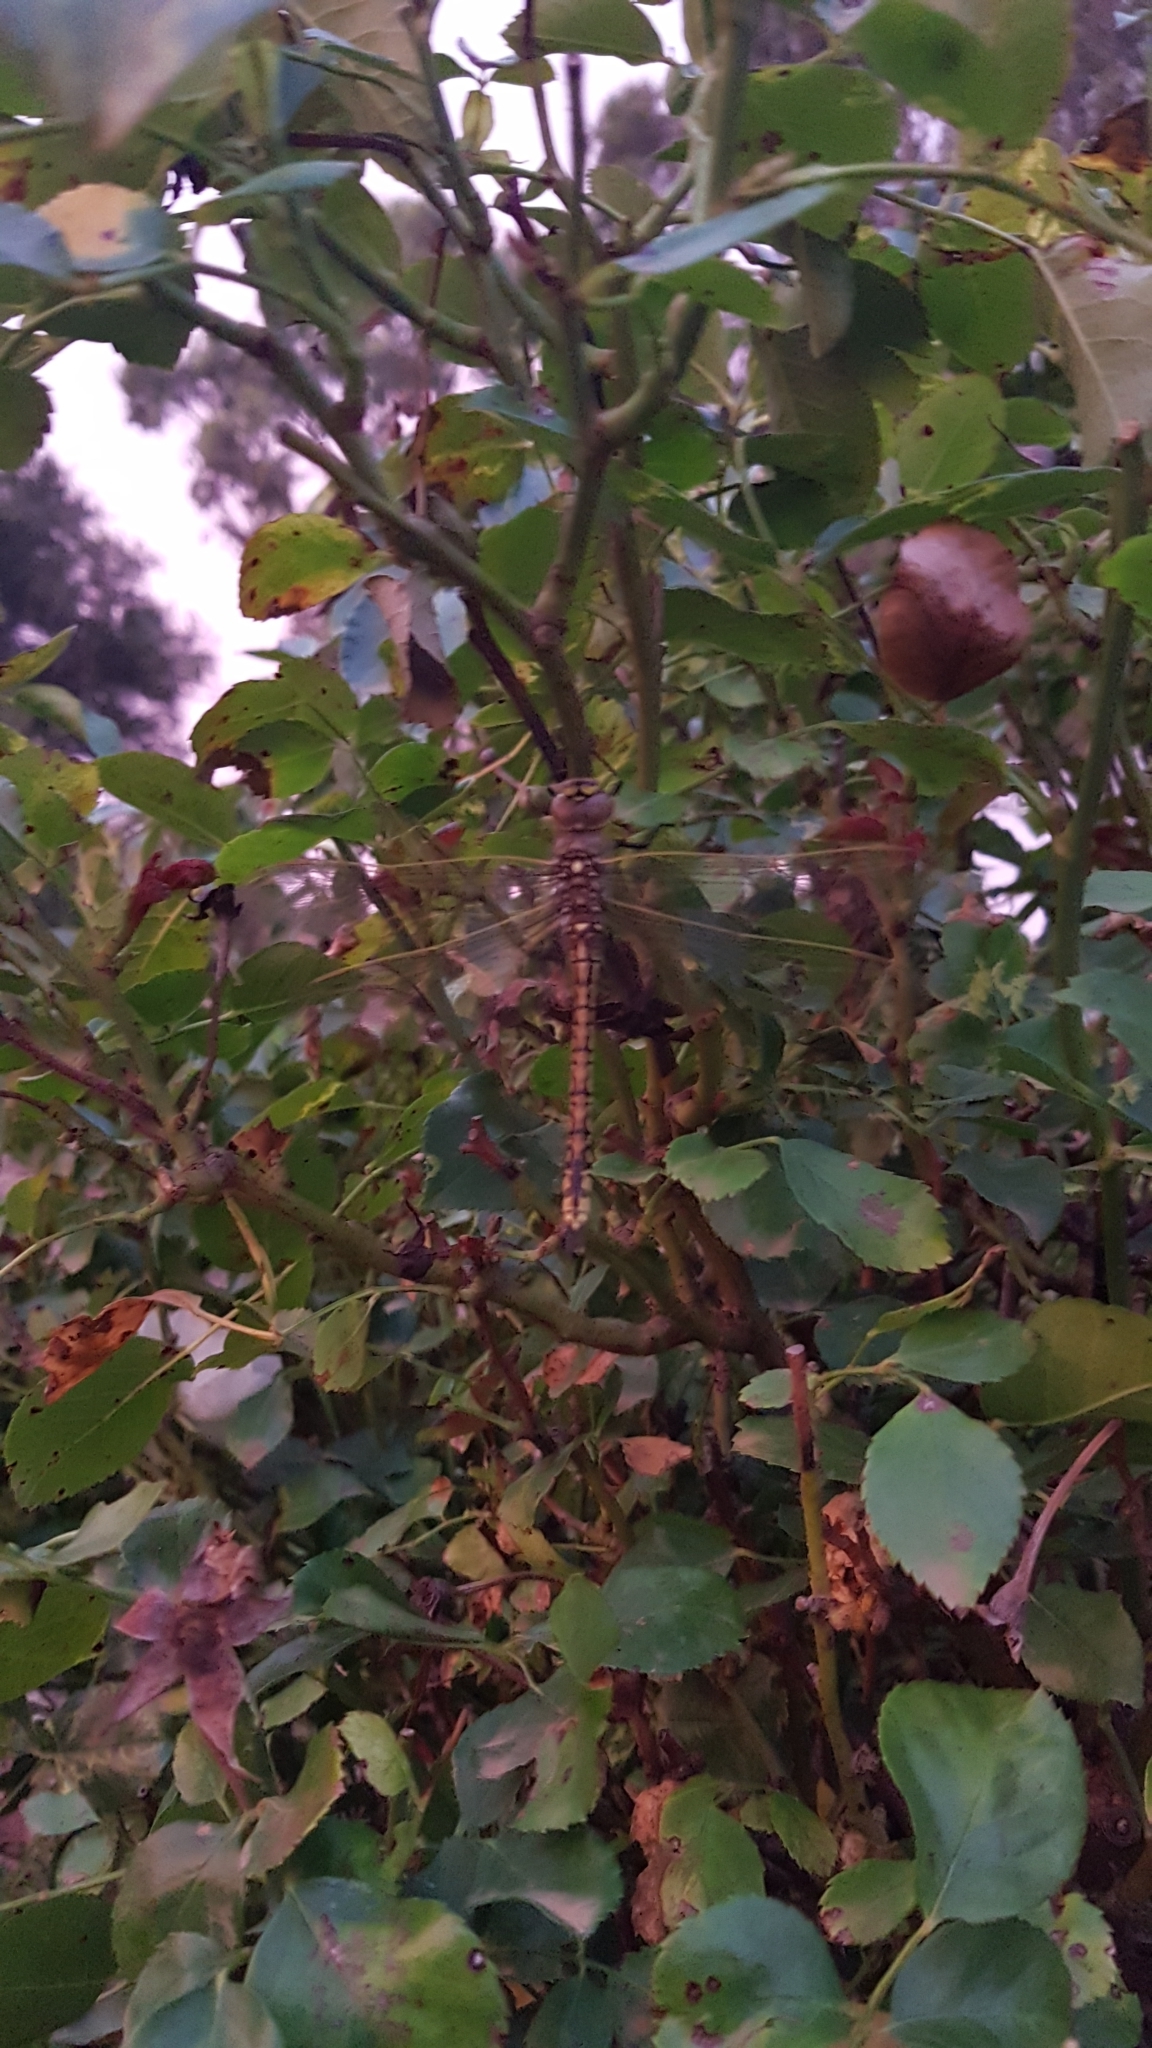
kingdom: Animalia
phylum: Arthropoda
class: Insecta
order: Odonata
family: Aeshnidae
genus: Anax
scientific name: Anax papuensis
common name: Australian emperor
